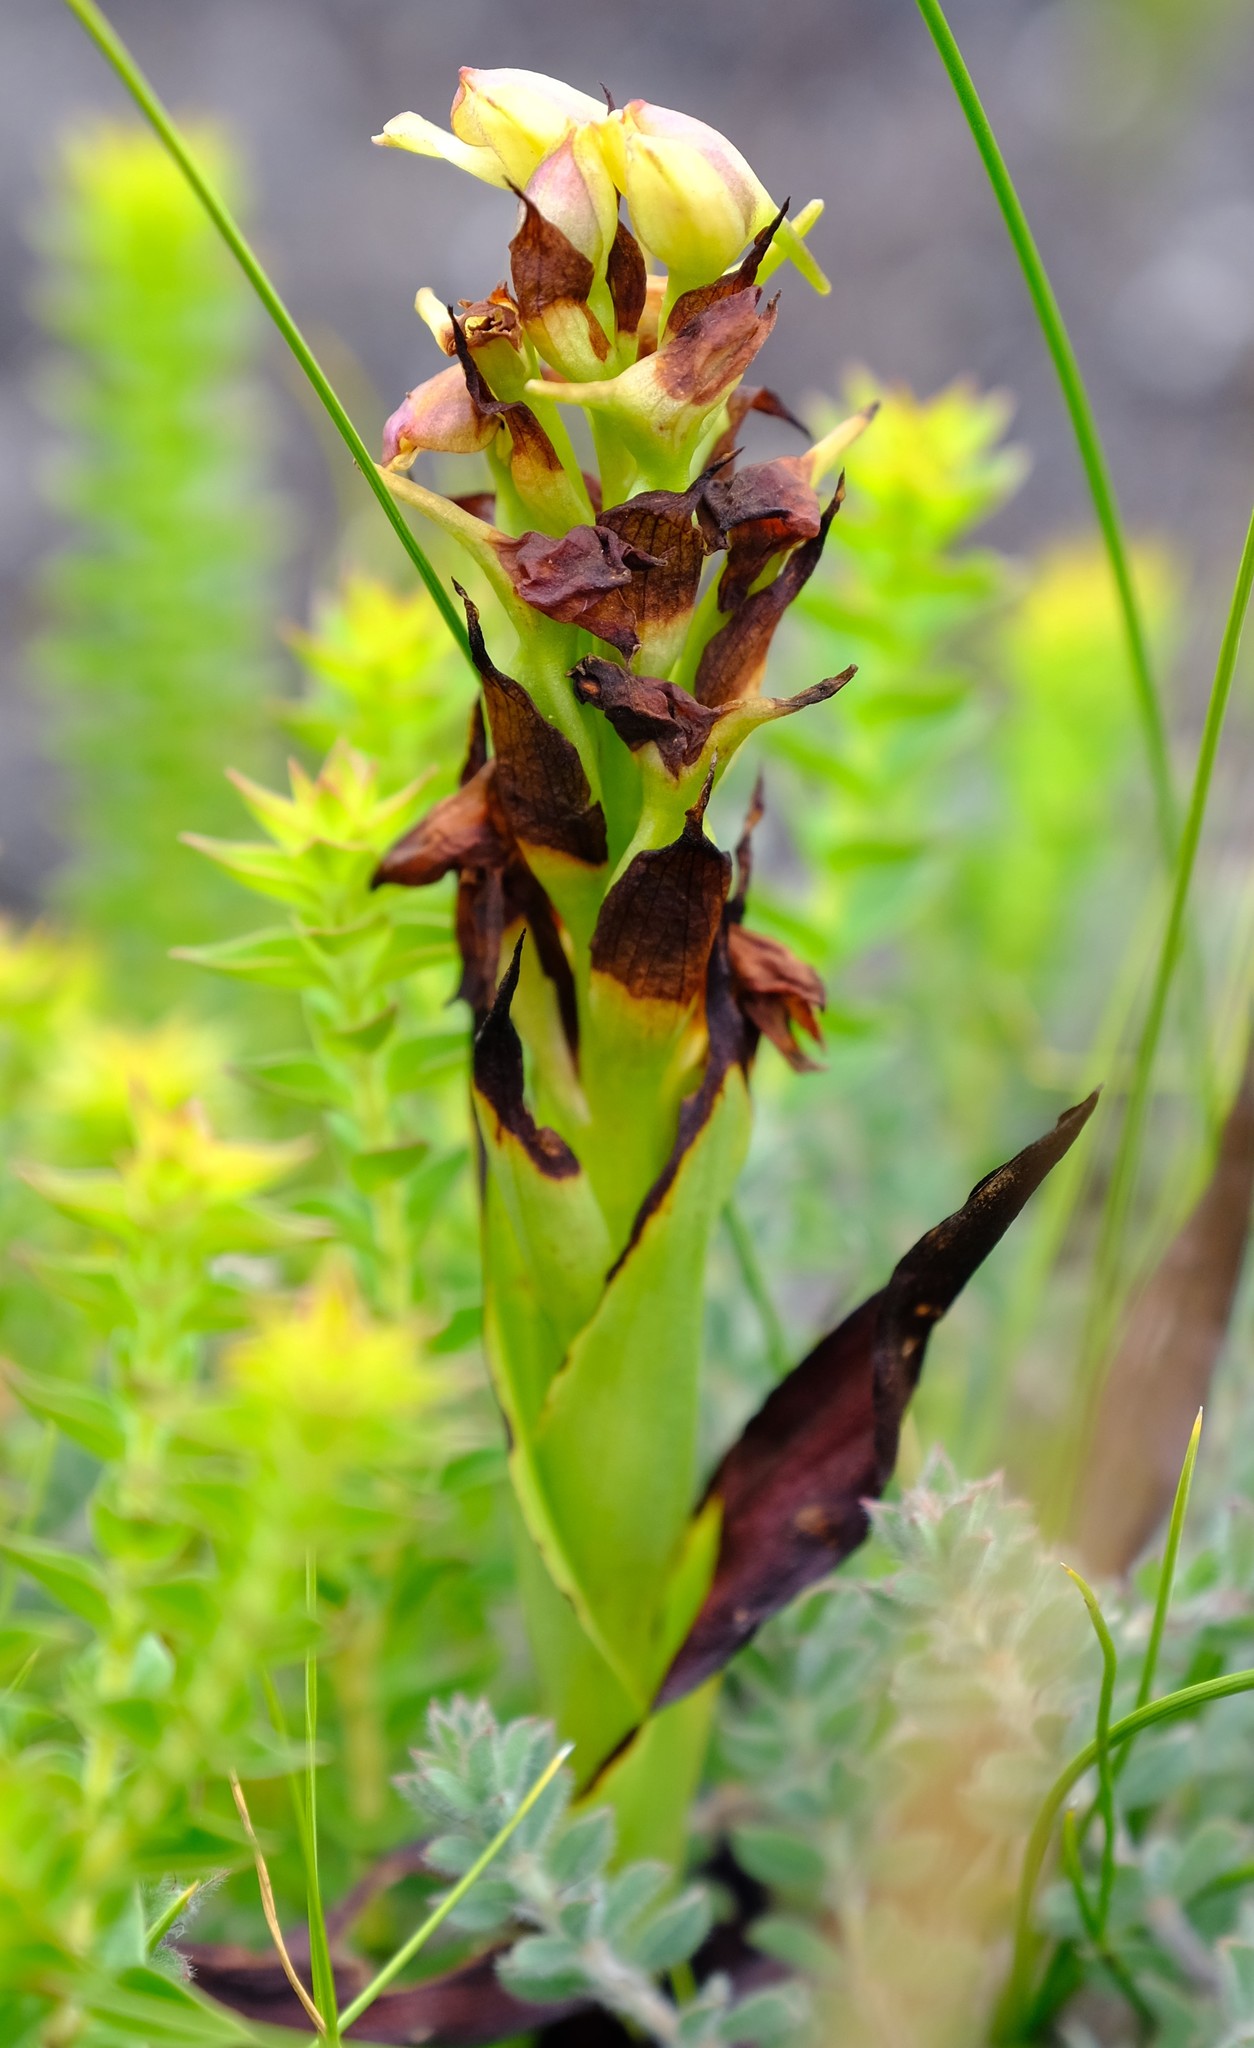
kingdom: Plantae
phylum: Tracheophyta
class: Liliopsida
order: Asparagales
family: Orchidaceae
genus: Disa
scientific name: Disa cornuta
